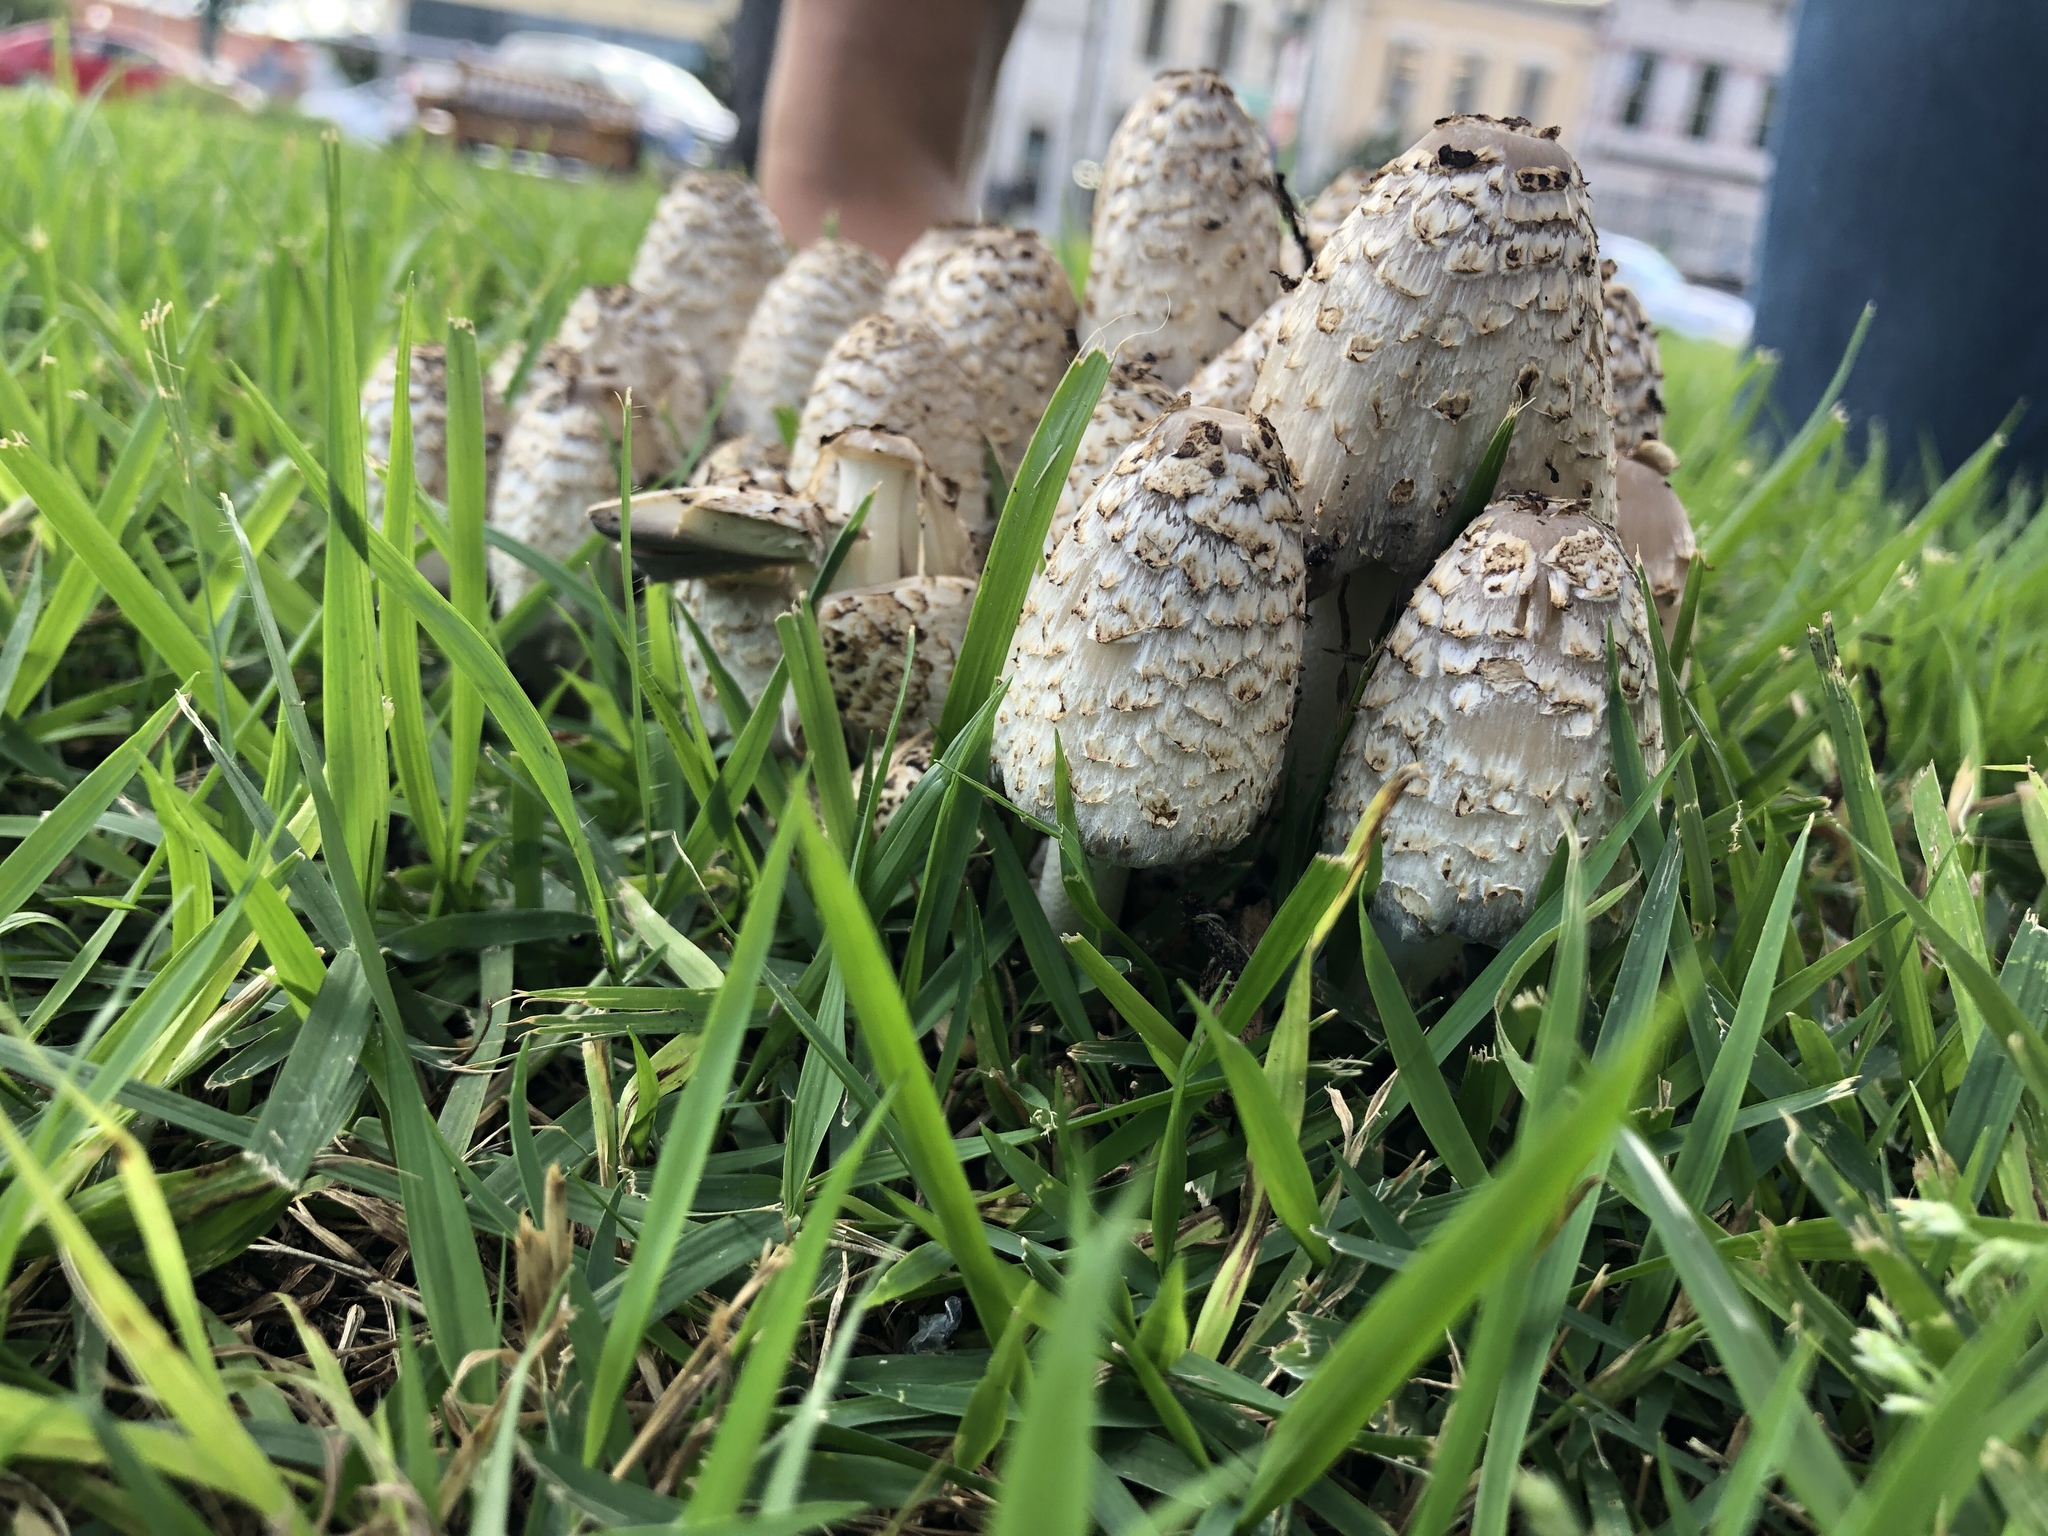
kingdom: Fungi
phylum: Basidiomycota
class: Agaricomycetes
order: Agaricales
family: Psathyrellaceae
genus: Coprinopsis
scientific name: Coprinopsis variegata
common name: Scaly ink cap
